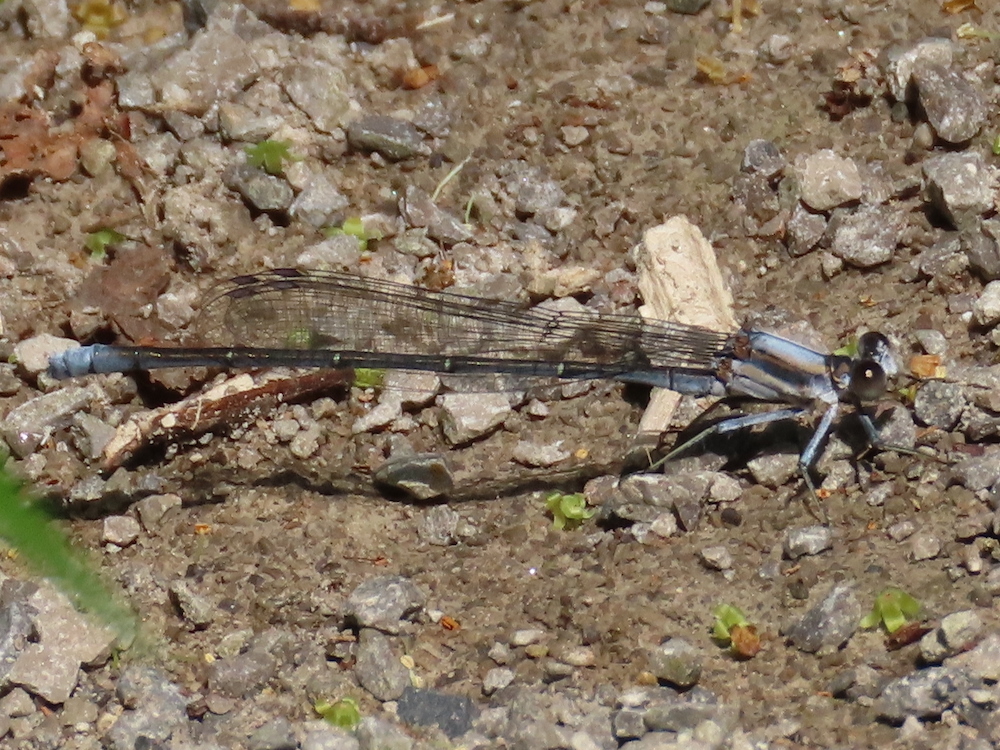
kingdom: Animalia
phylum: Arthropoda
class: Insecta
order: Odonata
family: Coenagrionidae
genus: Argia
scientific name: Argia moesta
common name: Powdered dancer
